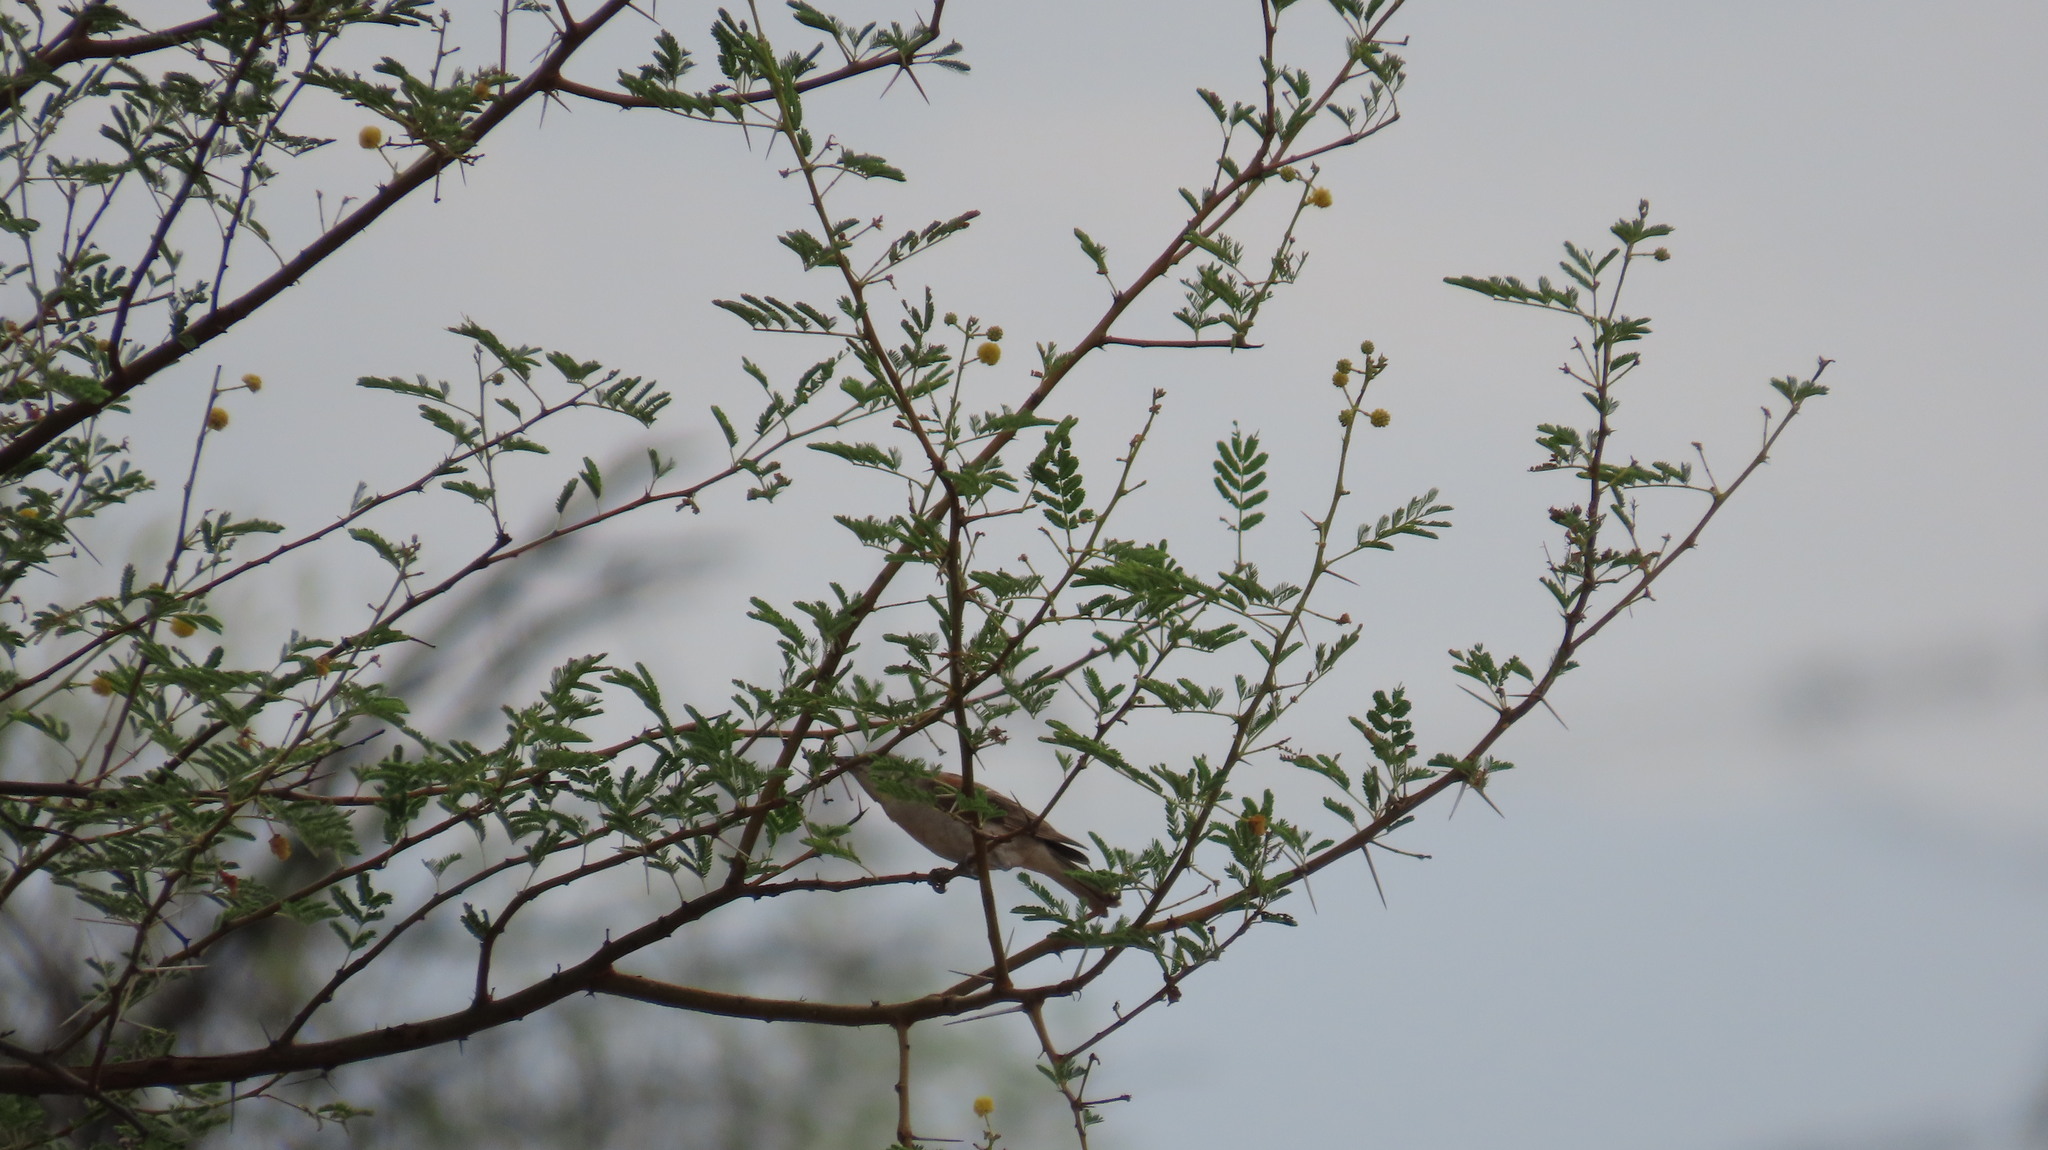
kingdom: Animalia
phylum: Chordata
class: Aves
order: Passeriformes
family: Passeridae
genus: Gymnoris
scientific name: Gymnoris xanthocollis
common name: Yellow-throated sparrow
